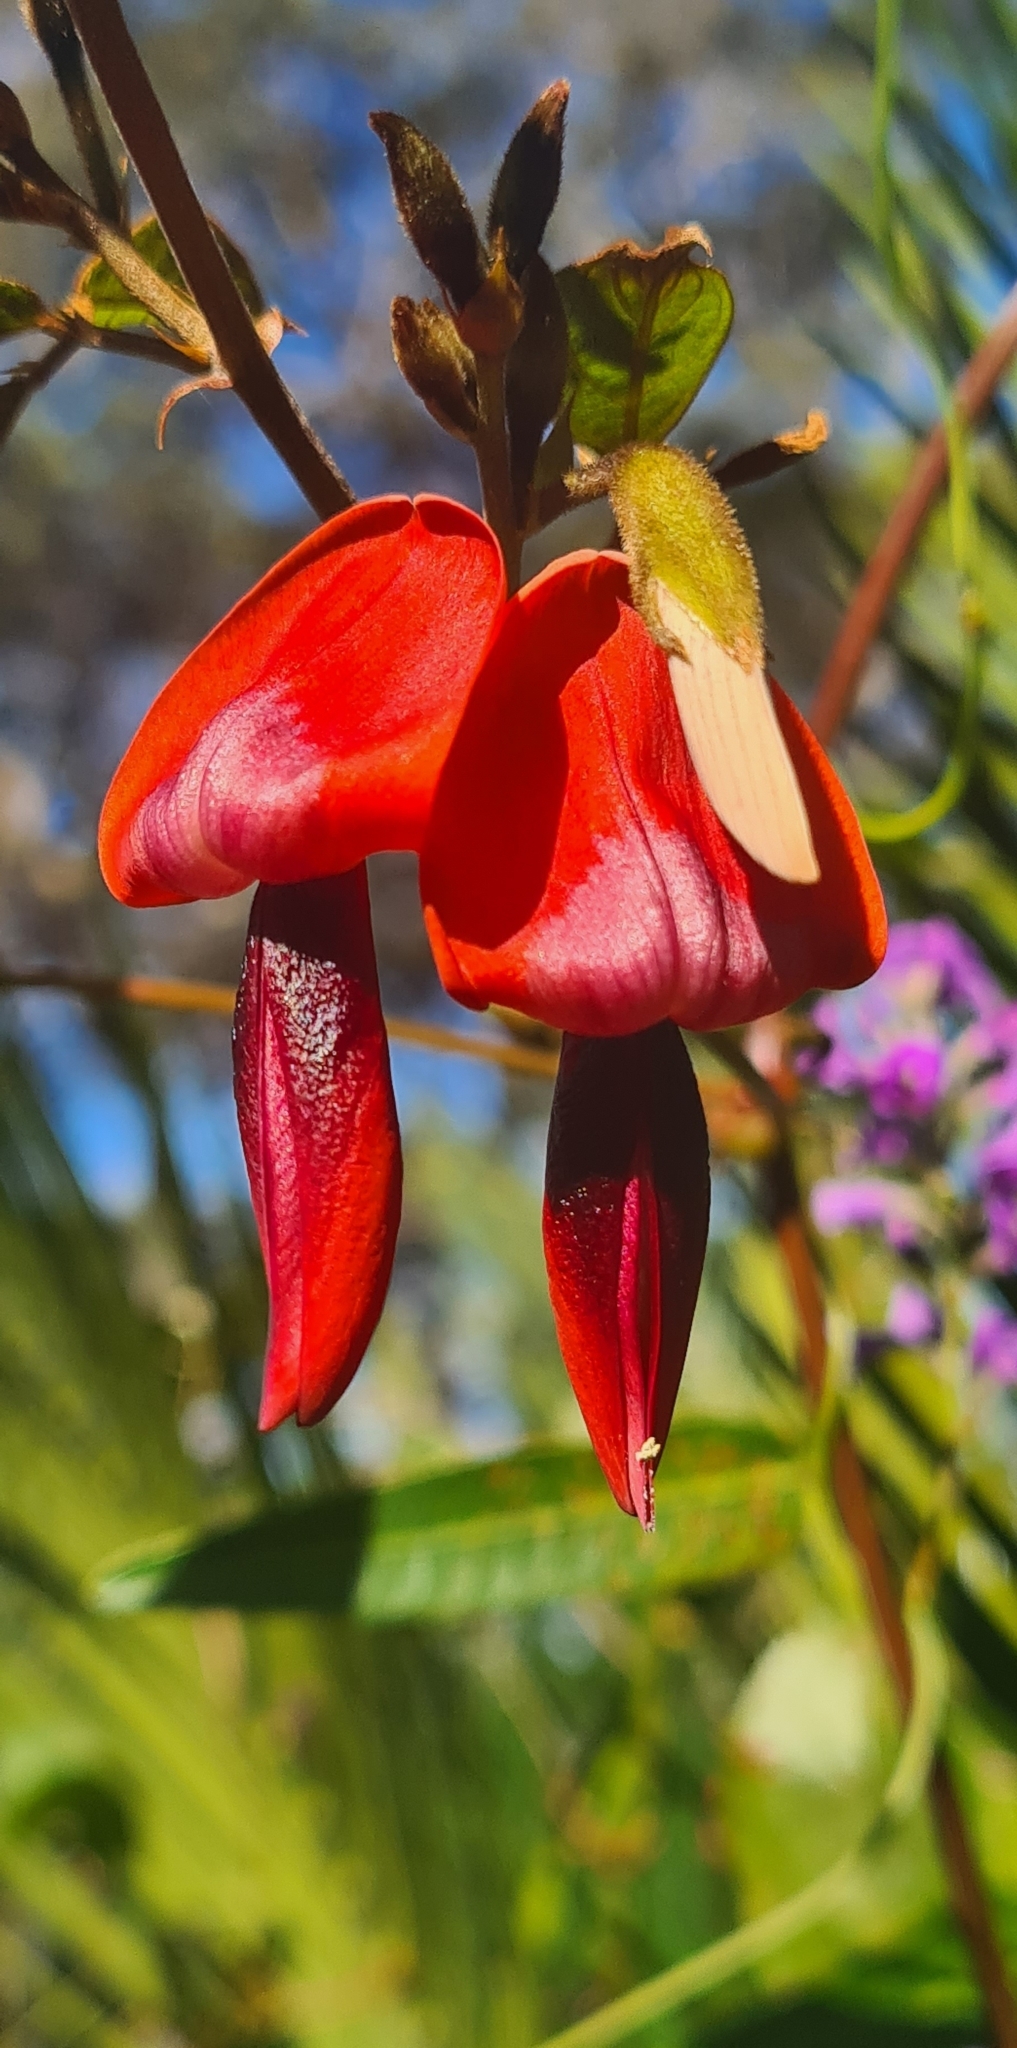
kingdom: Plantae
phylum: Tracheophyta
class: Magnoliopsida
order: Fabales
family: Fabaceae
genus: Kennedia
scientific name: Kennedia rubicunda
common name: Red kennedy-pea
